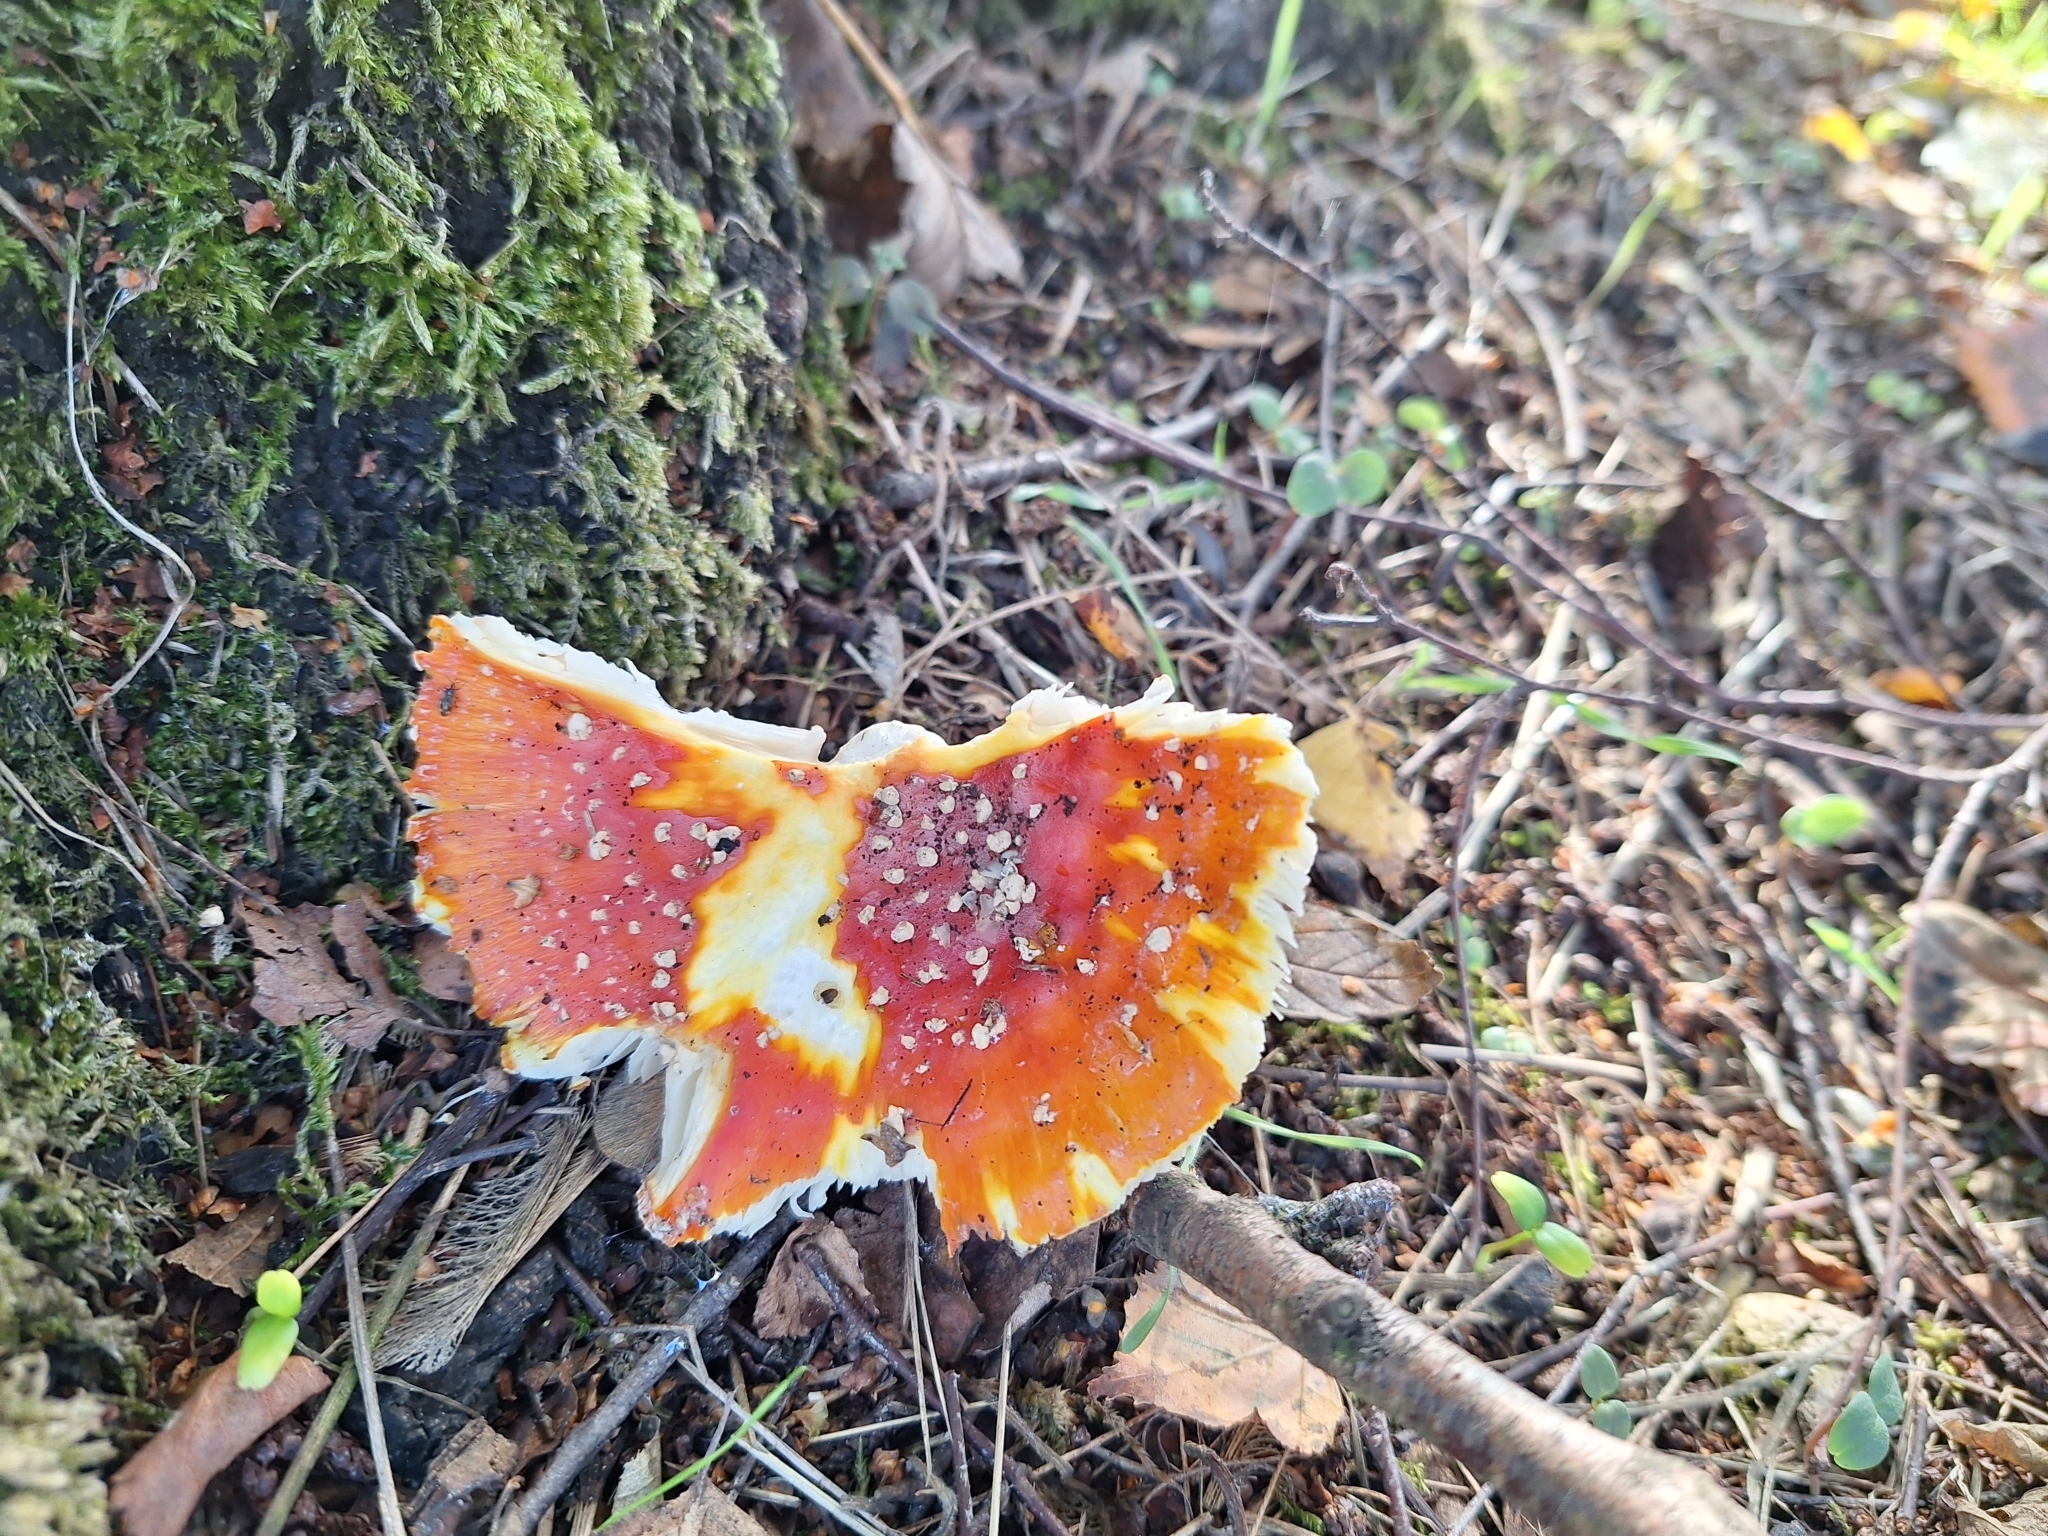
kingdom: Fungi
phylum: Basidiomycota
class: Agaricomycetes
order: Agaricales
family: Amanitaceae
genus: Amanita
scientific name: Amanita muscaria
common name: Fly agaric
